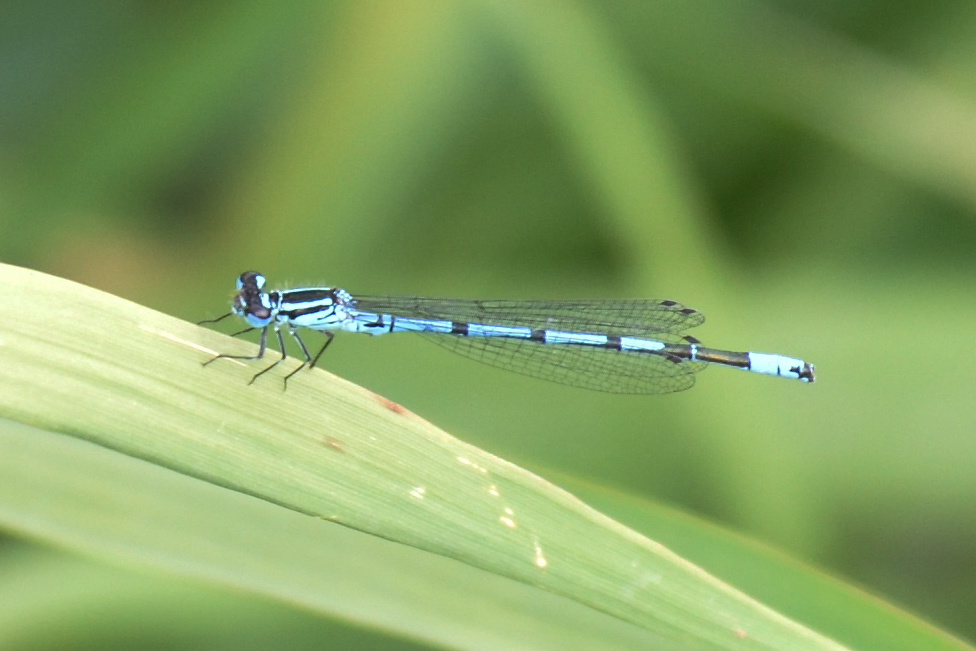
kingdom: Animalia
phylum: Arthropoda
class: Insecta
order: Odonata
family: Coenagrionidae
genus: Coenagrion
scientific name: Coenagrion puella
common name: Azure damselfly
